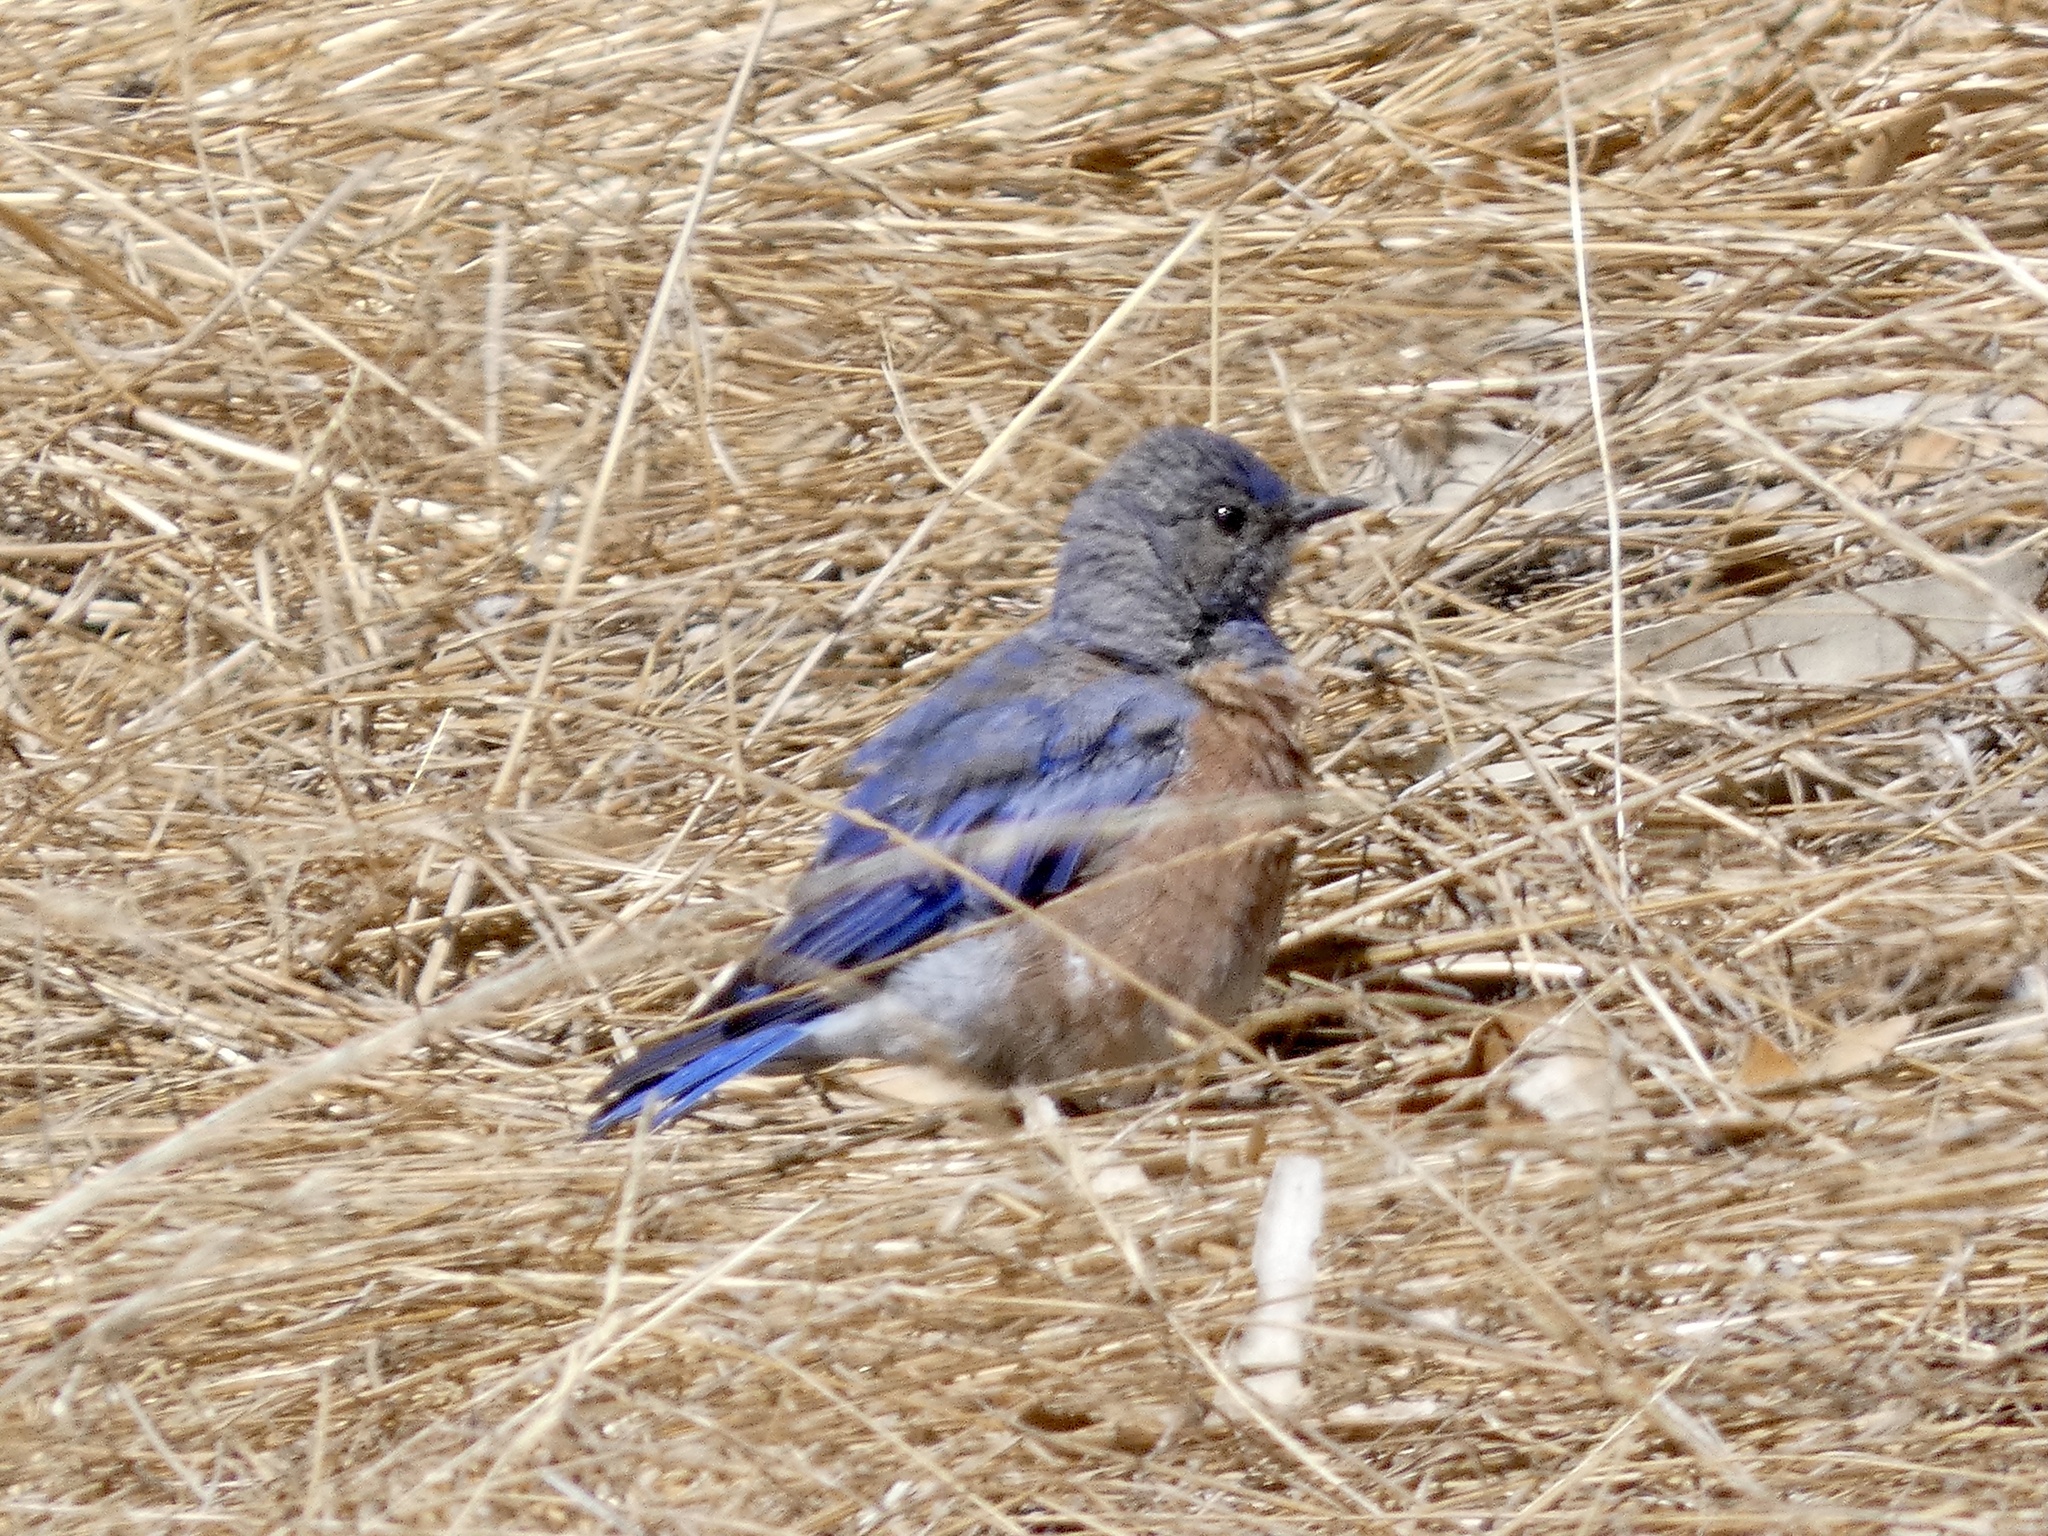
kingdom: Animalia
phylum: Chordata
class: Aves
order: Passeriformes
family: Turdidae
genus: Sialia
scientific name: Sialia mexicana
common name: Western bluebird
